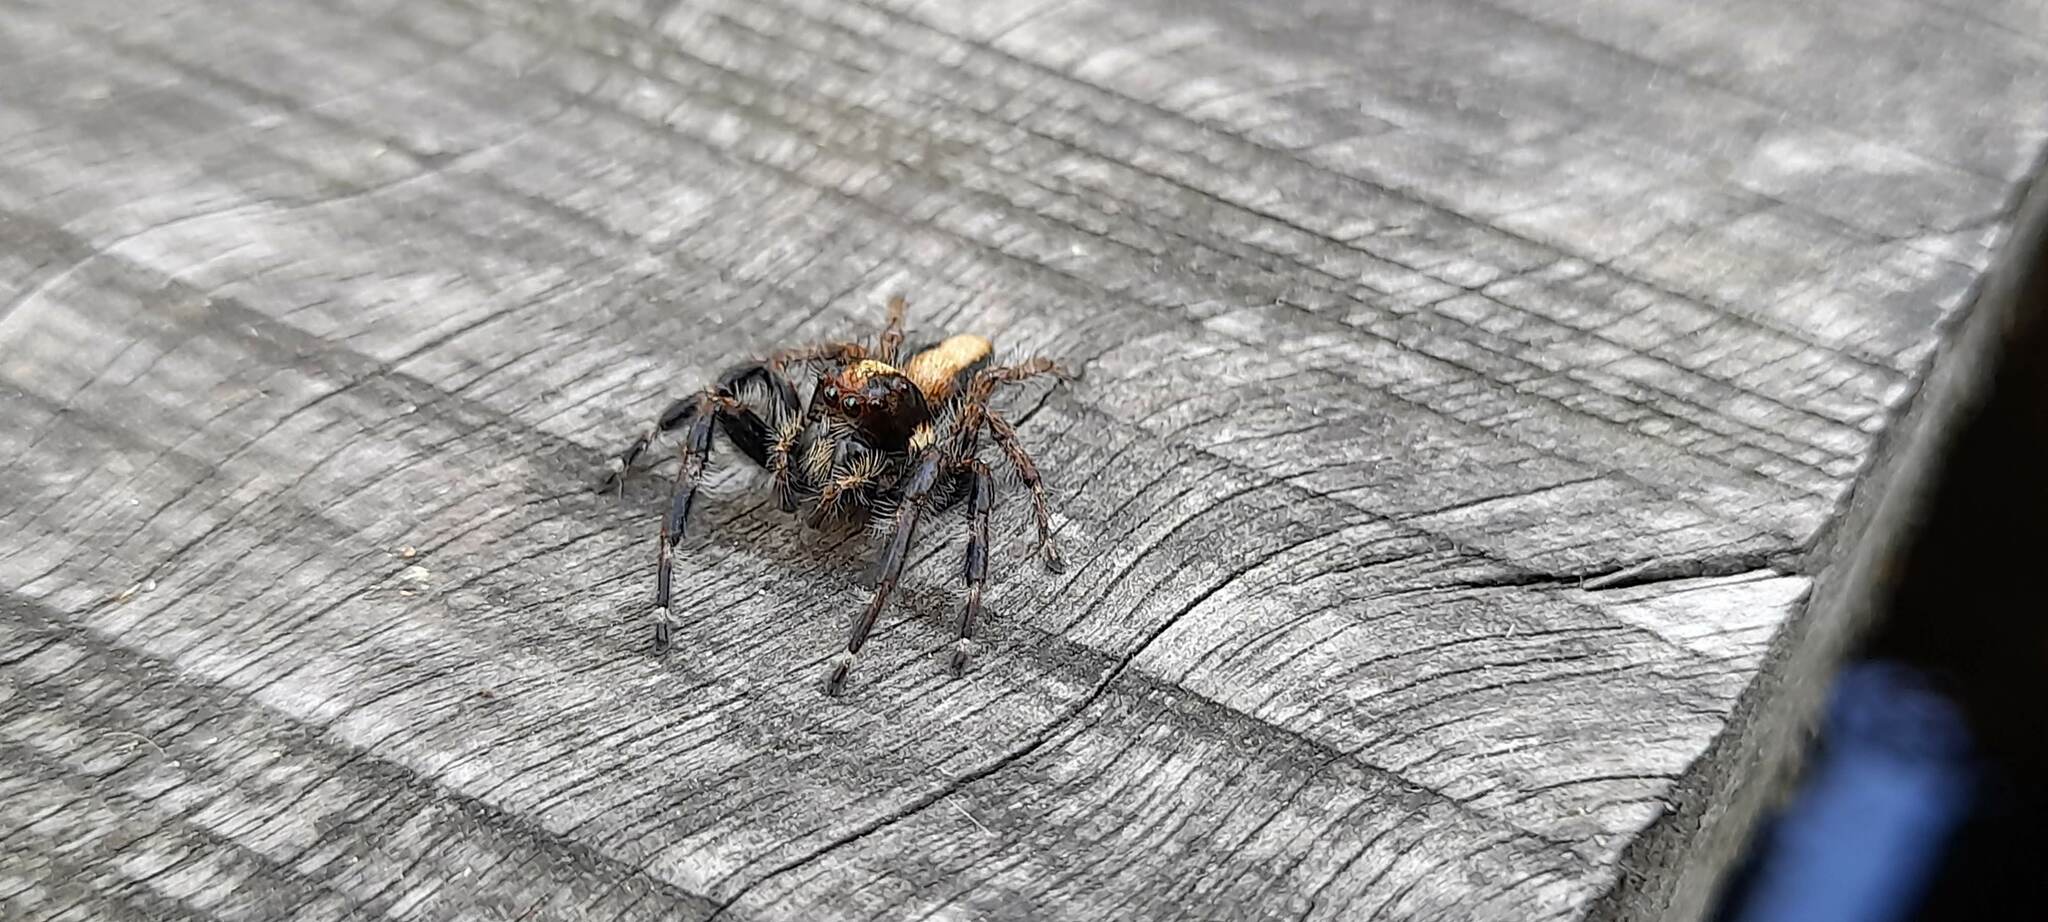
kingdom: Animalia
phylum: Arthropoda
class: Arachnida
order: Araneae
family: Salticidae
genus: Megafreya
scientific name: Megafreya sutrix
